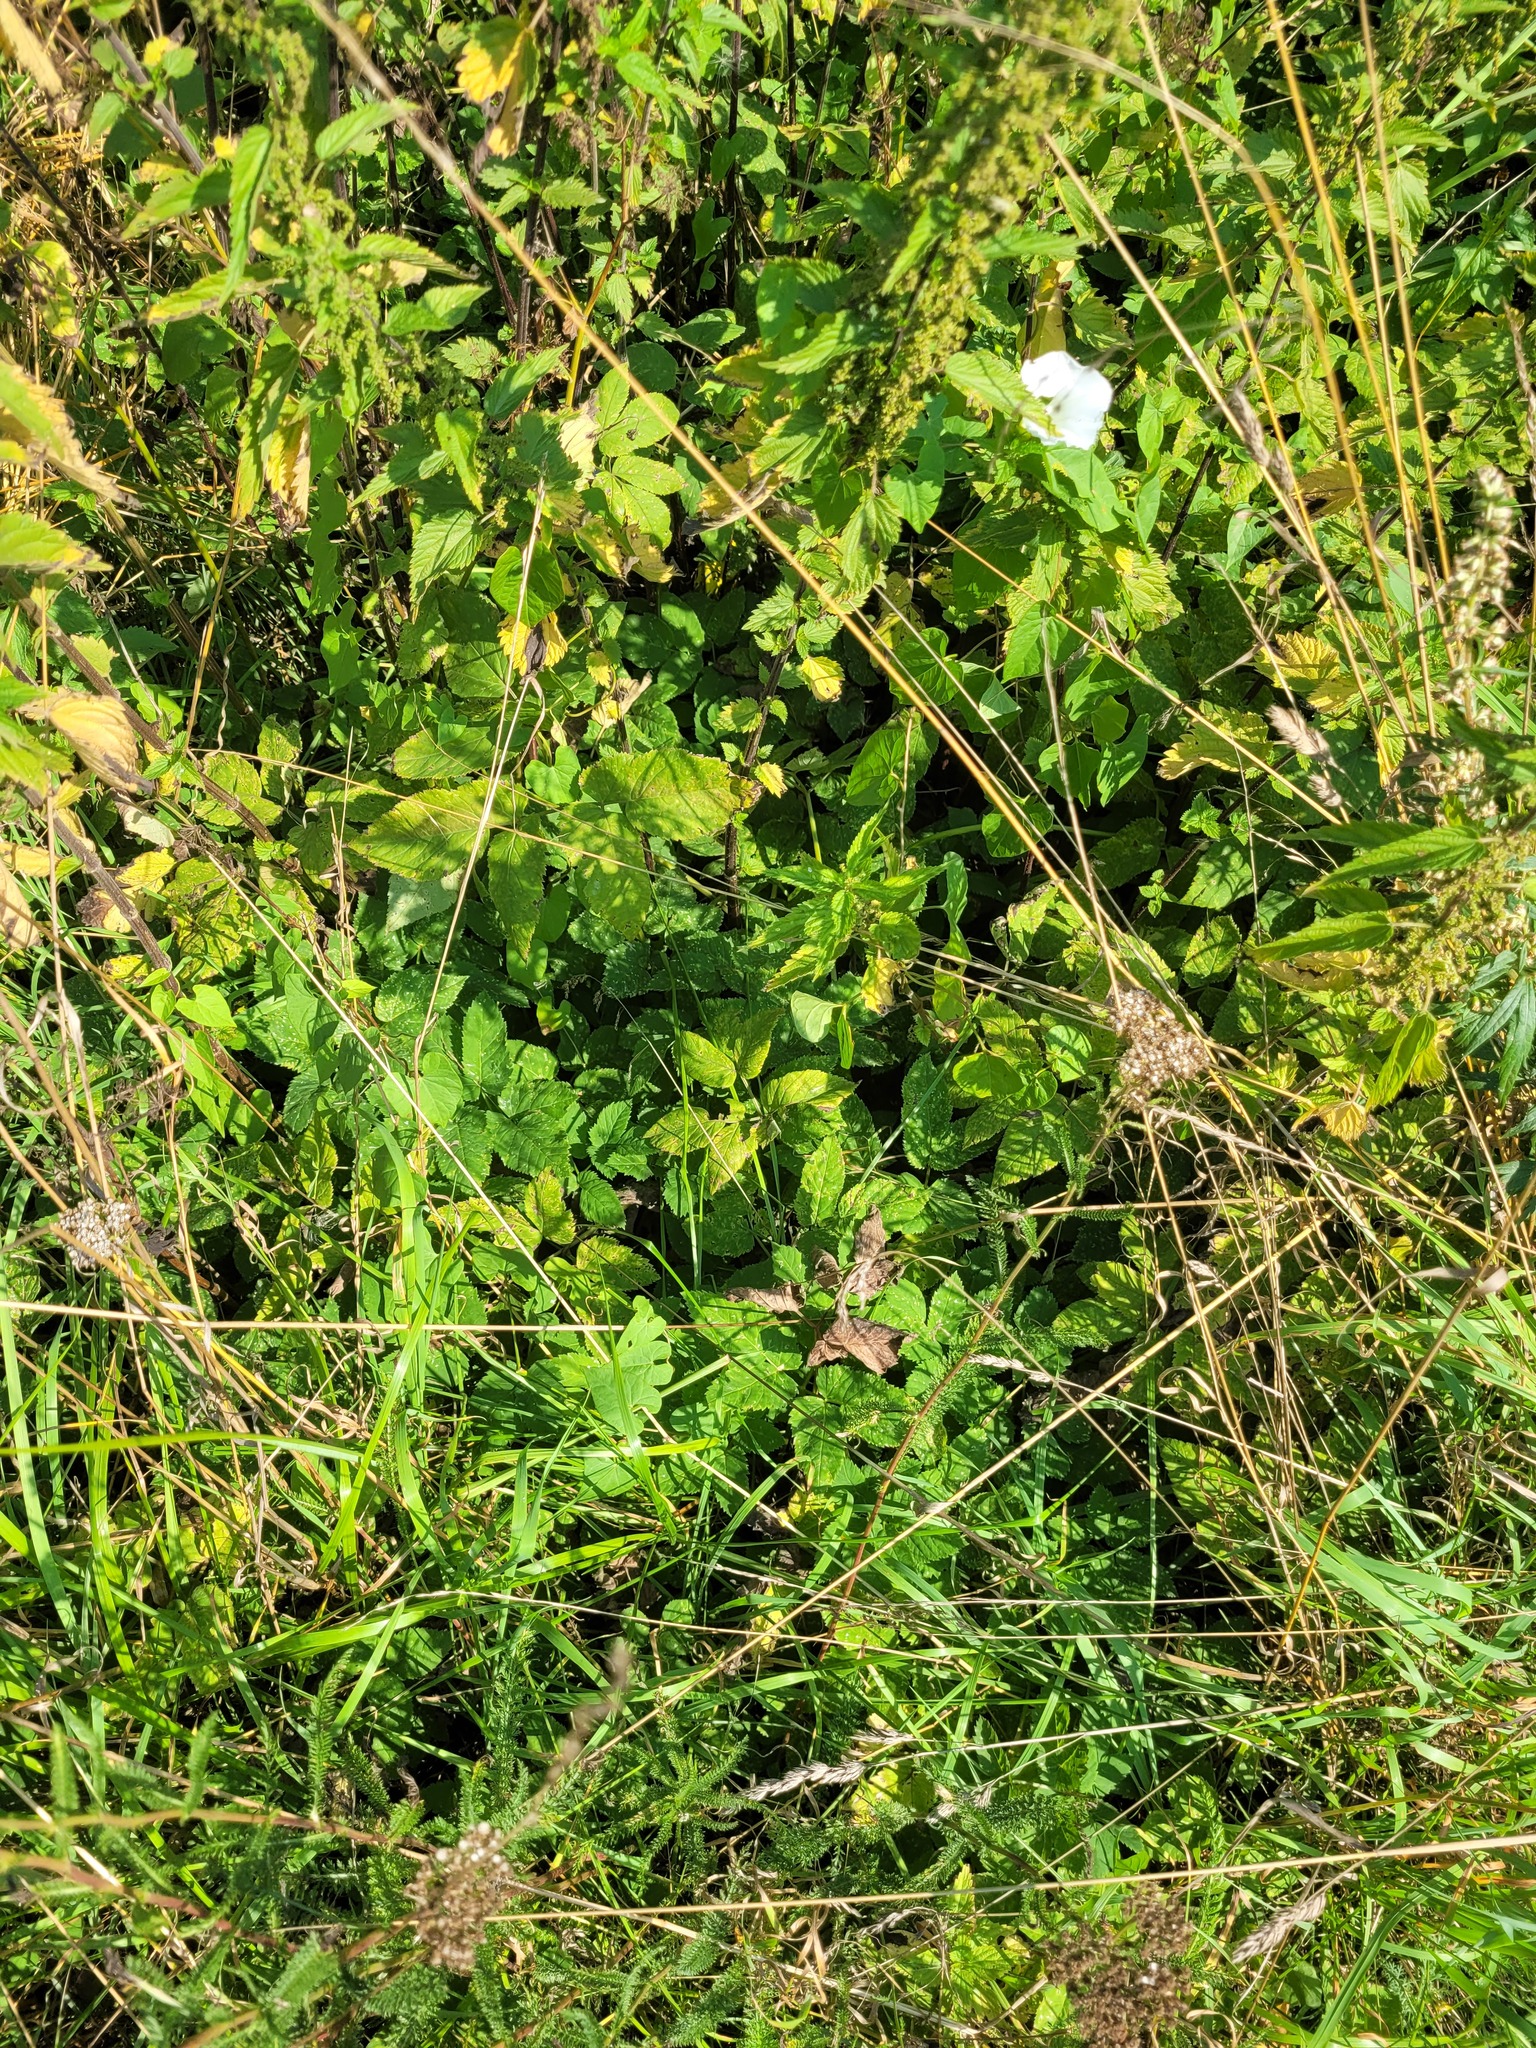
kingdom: Plantae
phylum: Tracheophyta
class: Magnoliopsida
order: Apiales
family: Apiaceae
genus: Aegopodium
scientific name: Aegopodium podagraria
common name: Ground-elder
